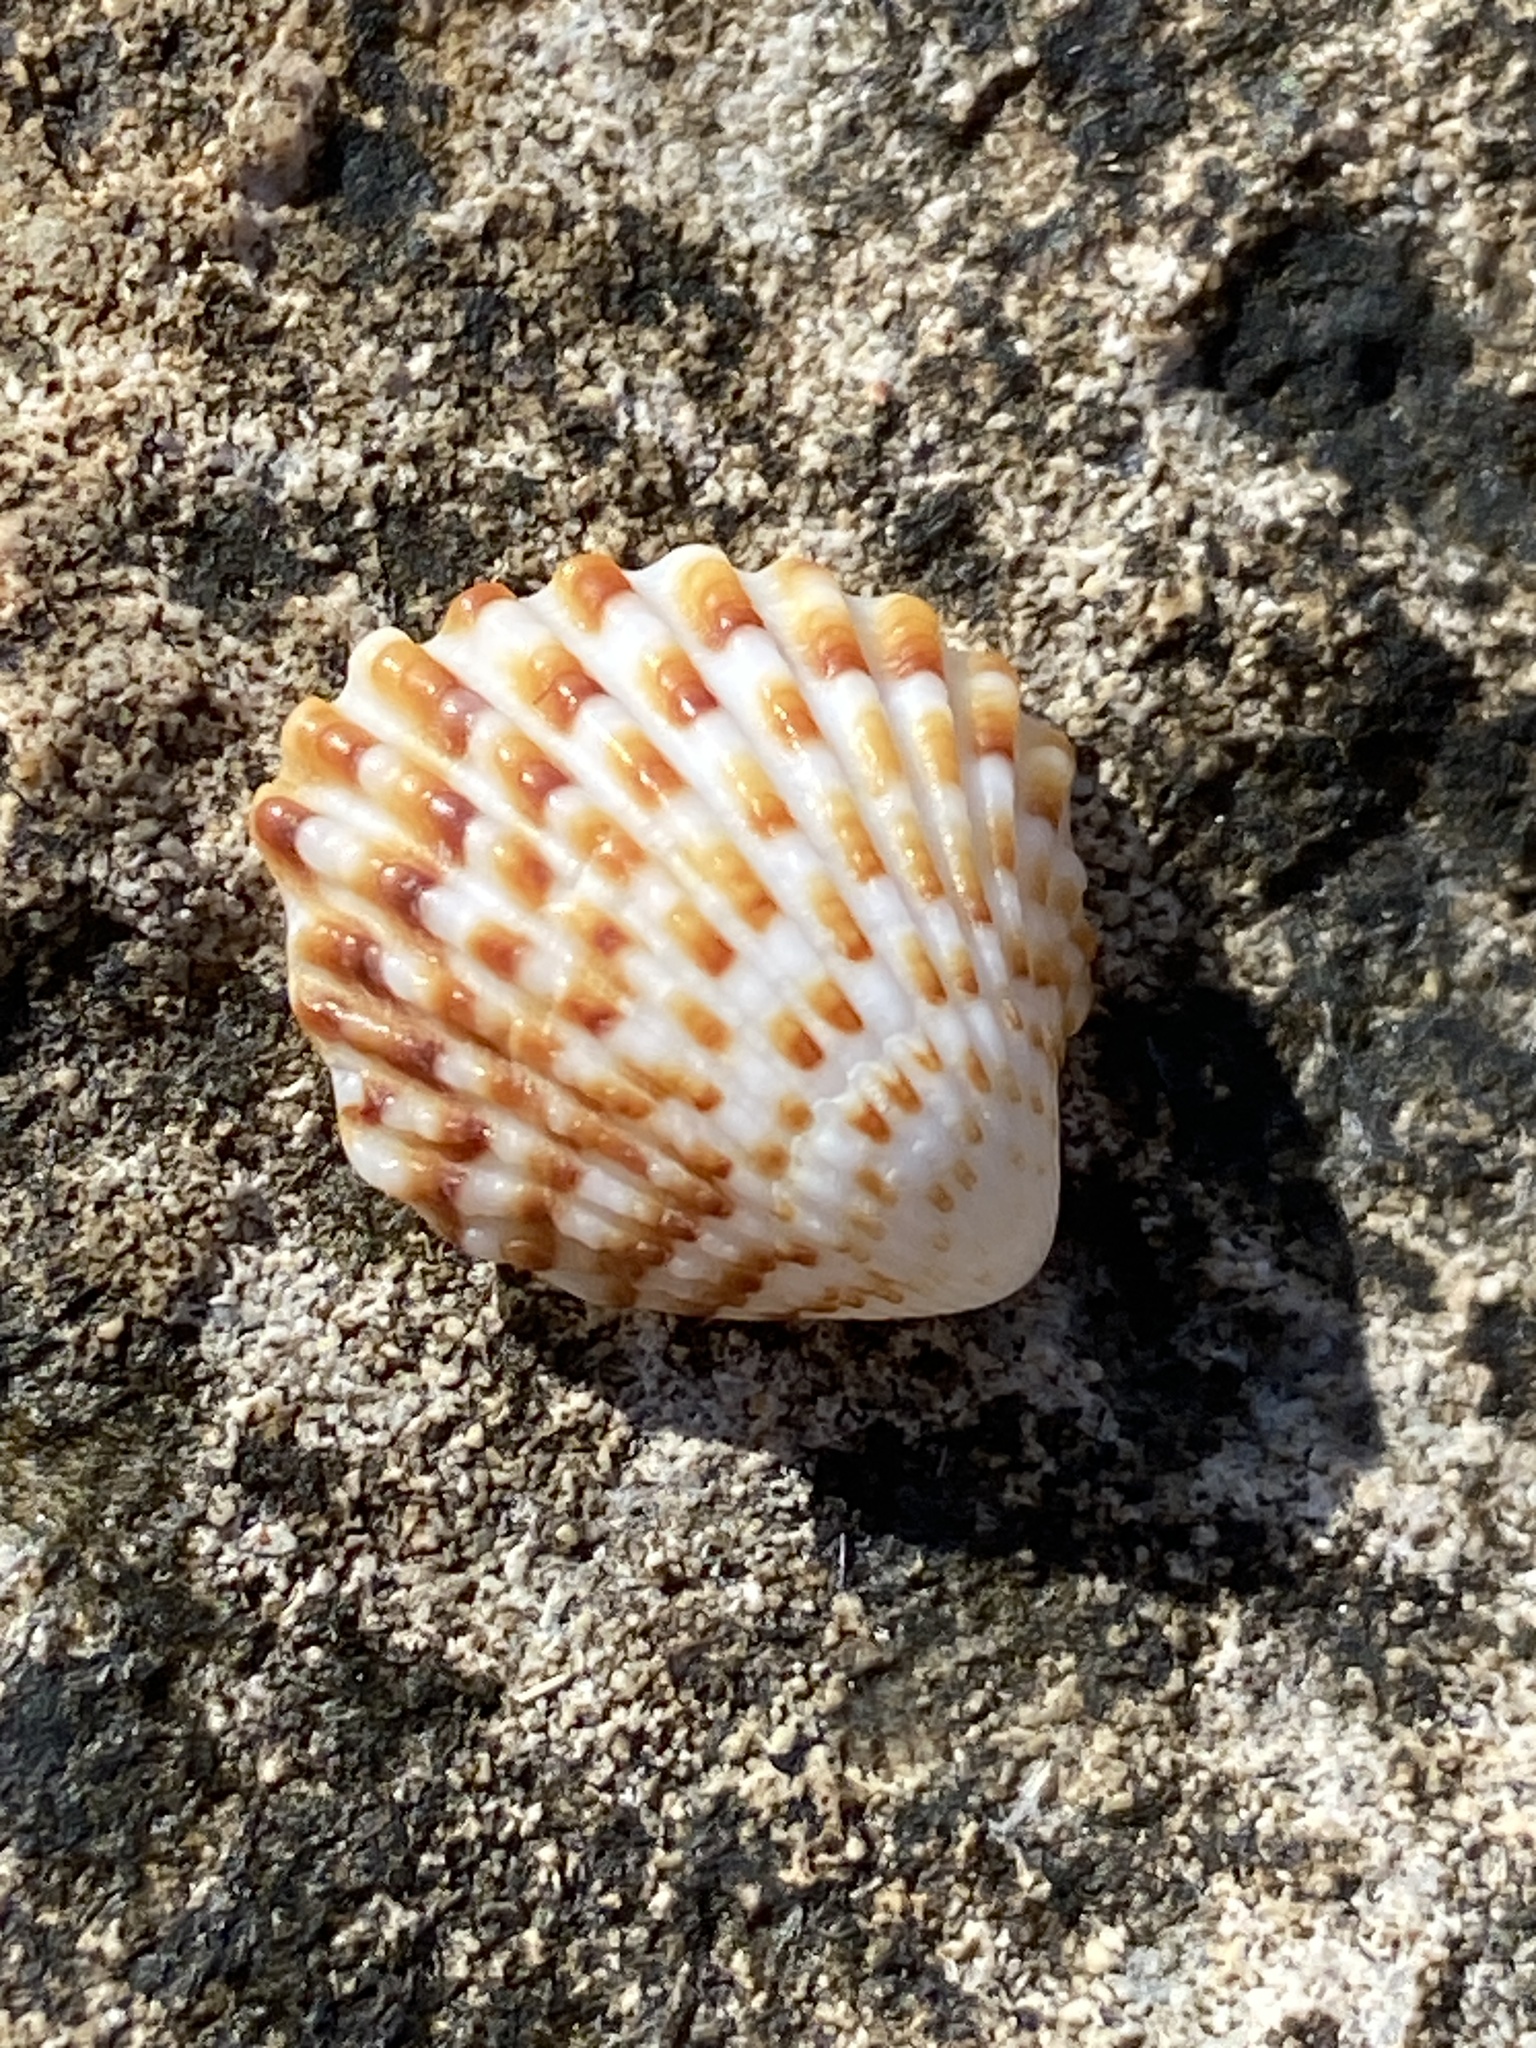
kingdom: Animalia
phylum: Mollusca
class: Bivalvia
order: Carditida
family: Carditidae
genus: Cardites
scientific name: Cardites antiquatus
